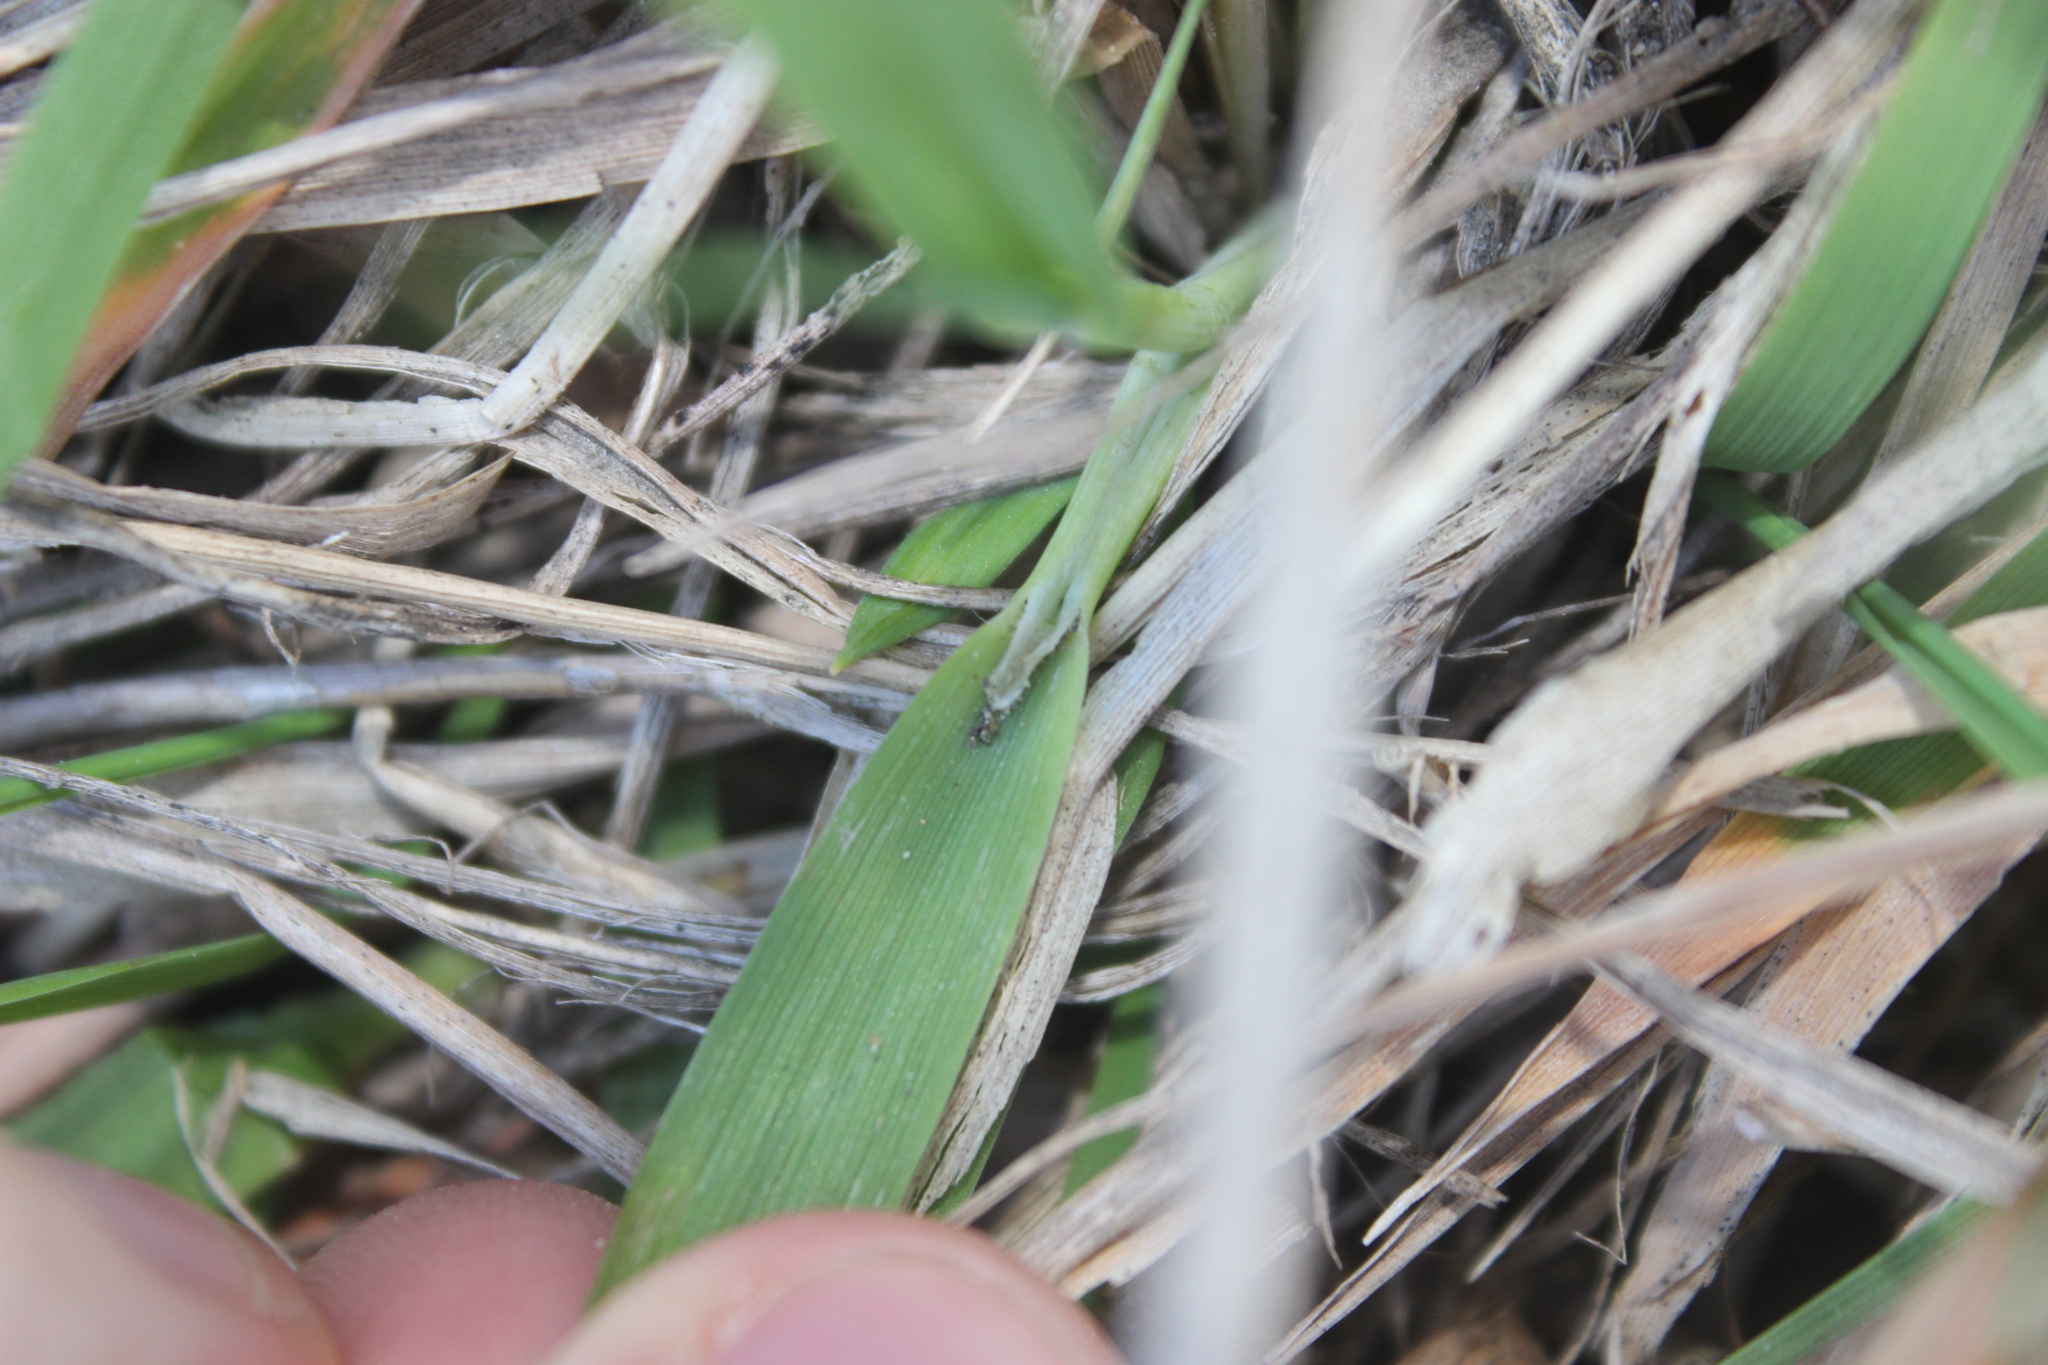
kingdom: Plantae
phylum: Tracheophyta
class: Liliopsida
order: Poales
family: Poaceae
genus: Lachnagrostis
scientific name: Lachnagrostis billardierei
